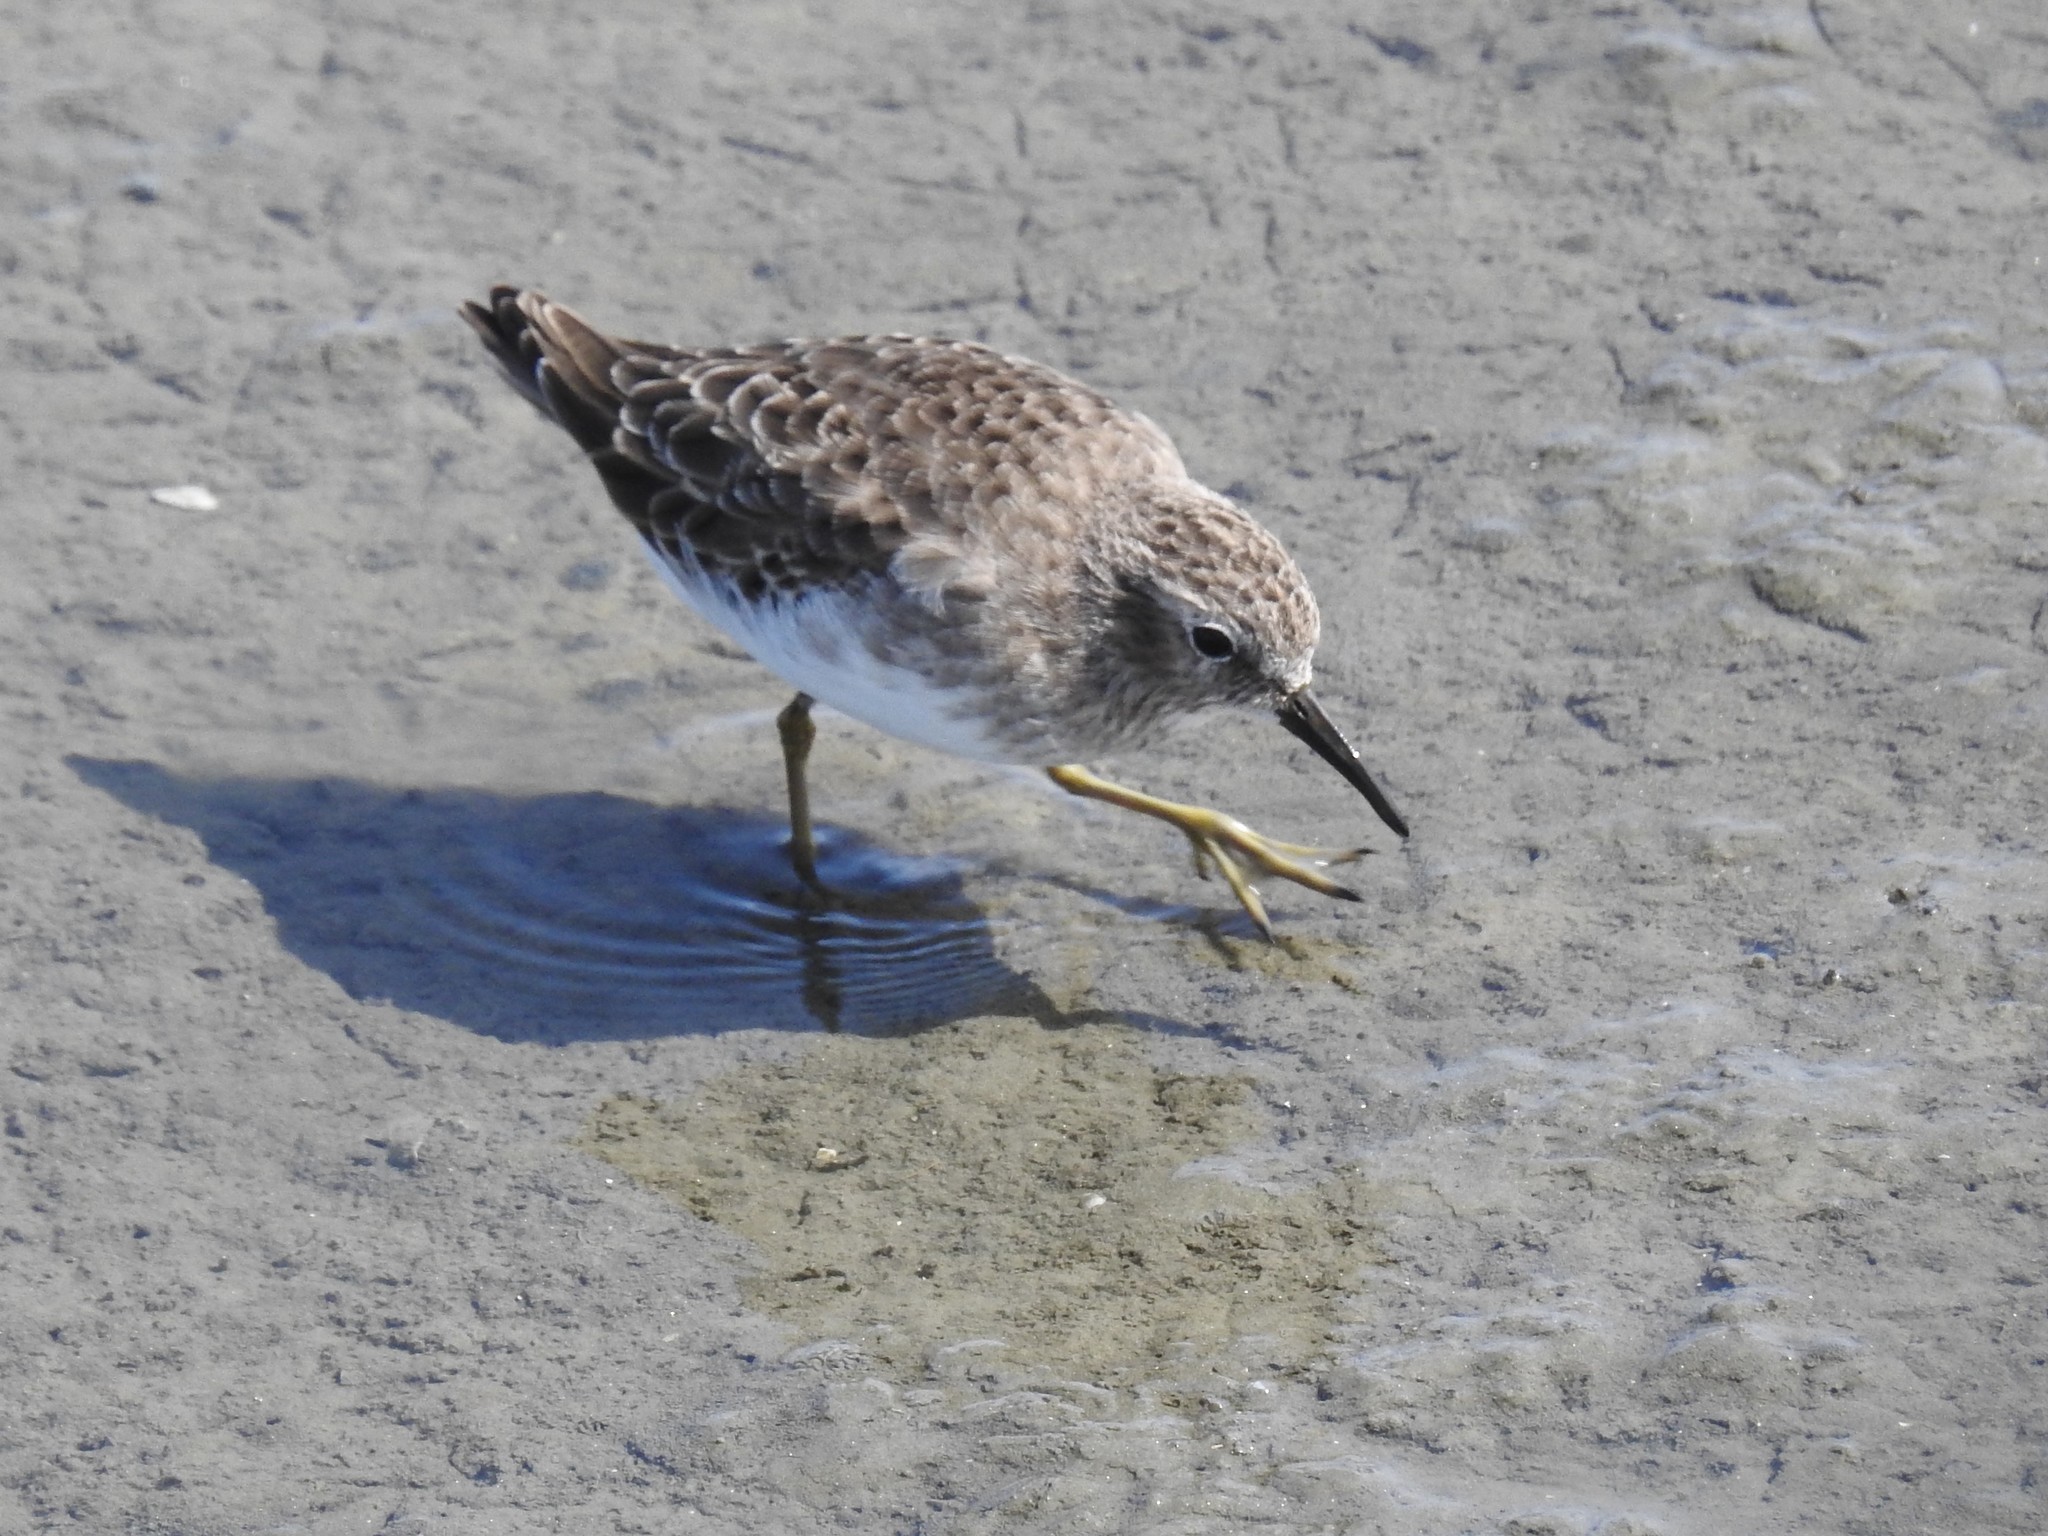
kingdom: Animalia
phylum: Chordata
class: Aves
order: Charadriiformes
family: Scolopacidae
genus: Calidris
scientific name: Calidris minutilla
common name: Least sandpiper
